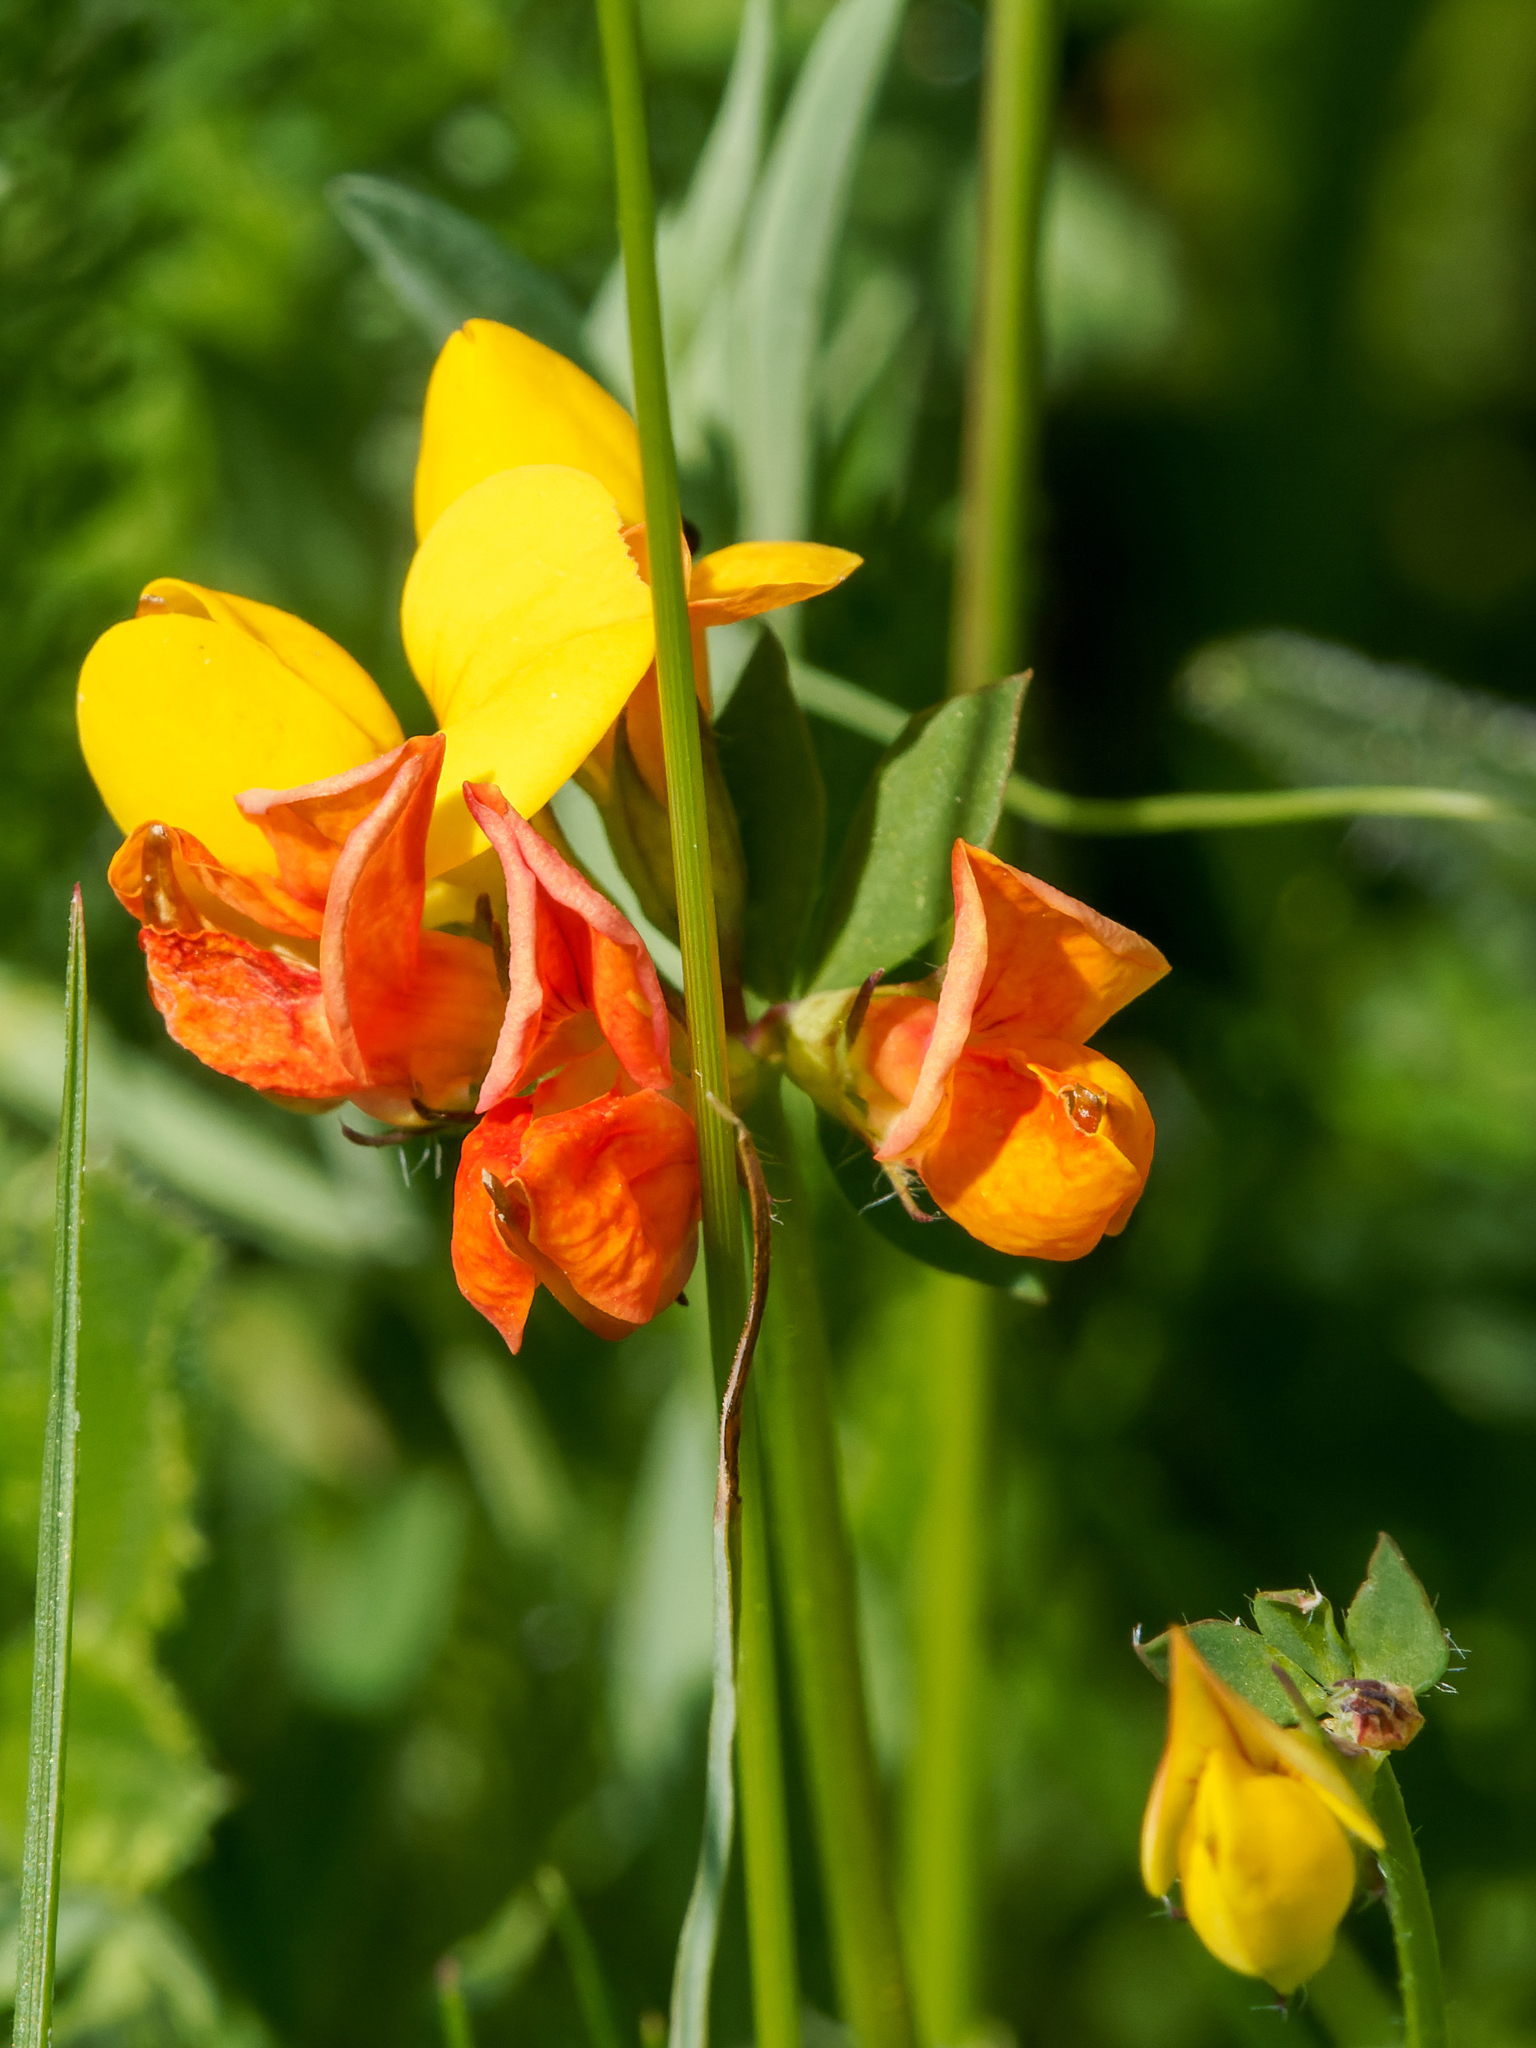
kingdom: Plantae
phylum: Tracheophyta
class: Magnoliopsida
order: Fabales
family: Fabaceae
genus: Lotus
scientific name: Lotus corniculatus
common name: Common bird's-foot-trefoil
